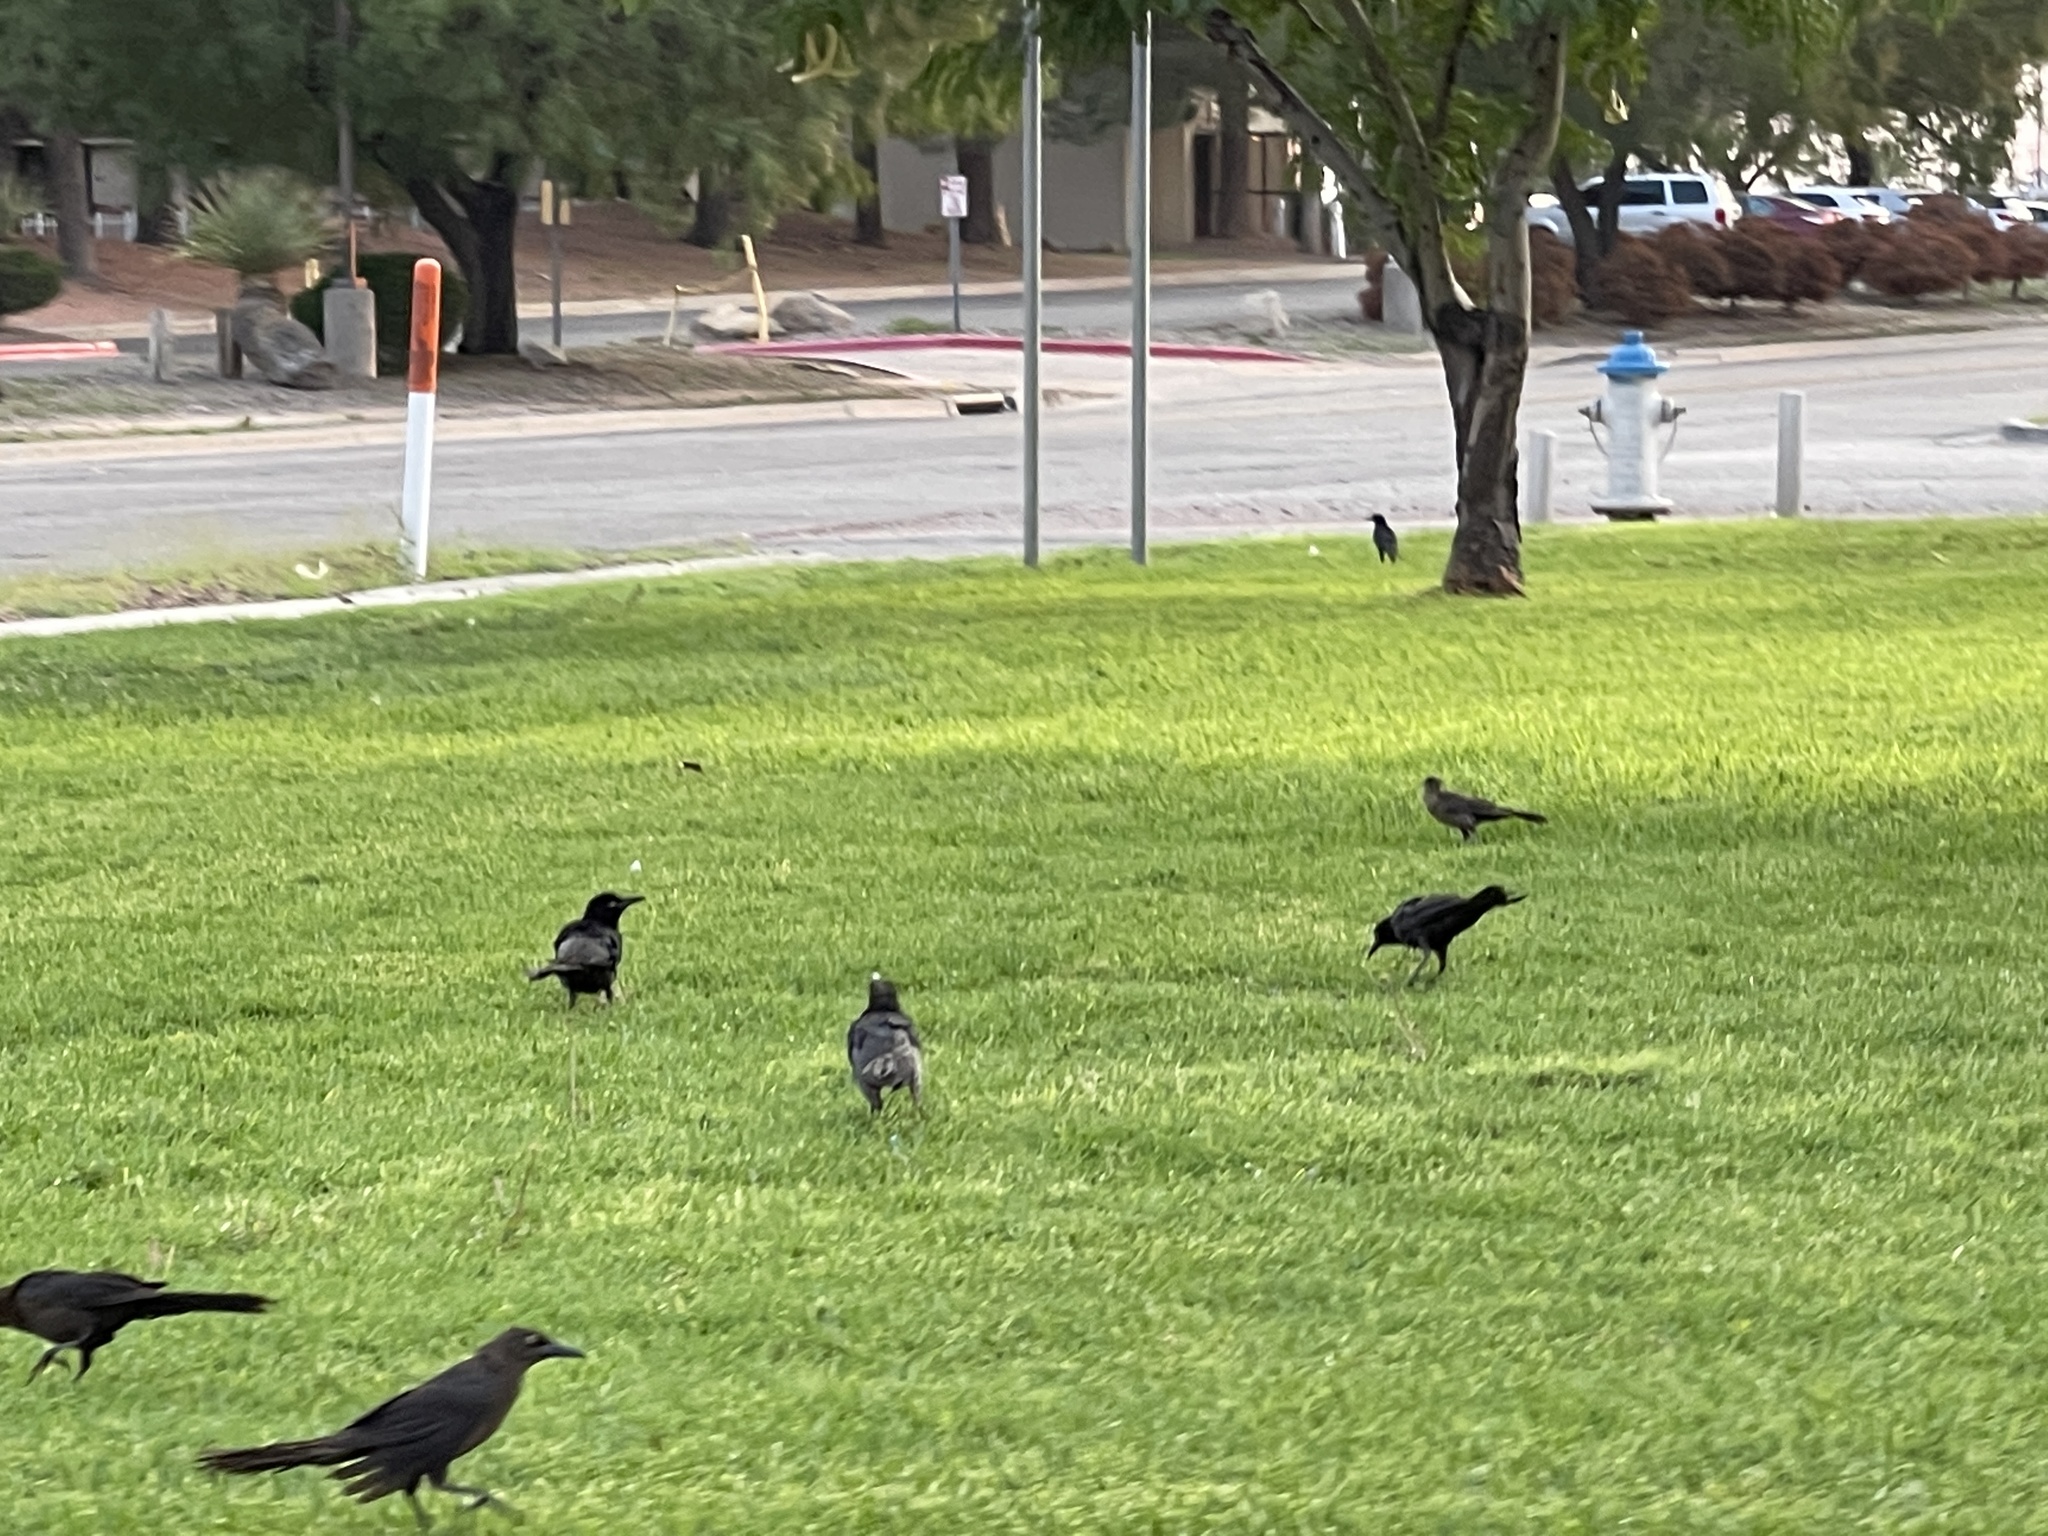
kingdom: Animalia
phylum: Chordata
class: Aves
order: Passeriformes
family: Icteridae
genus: Quiscalus
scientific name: Quiscalus mexicanus
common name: Great-tailed grackle
